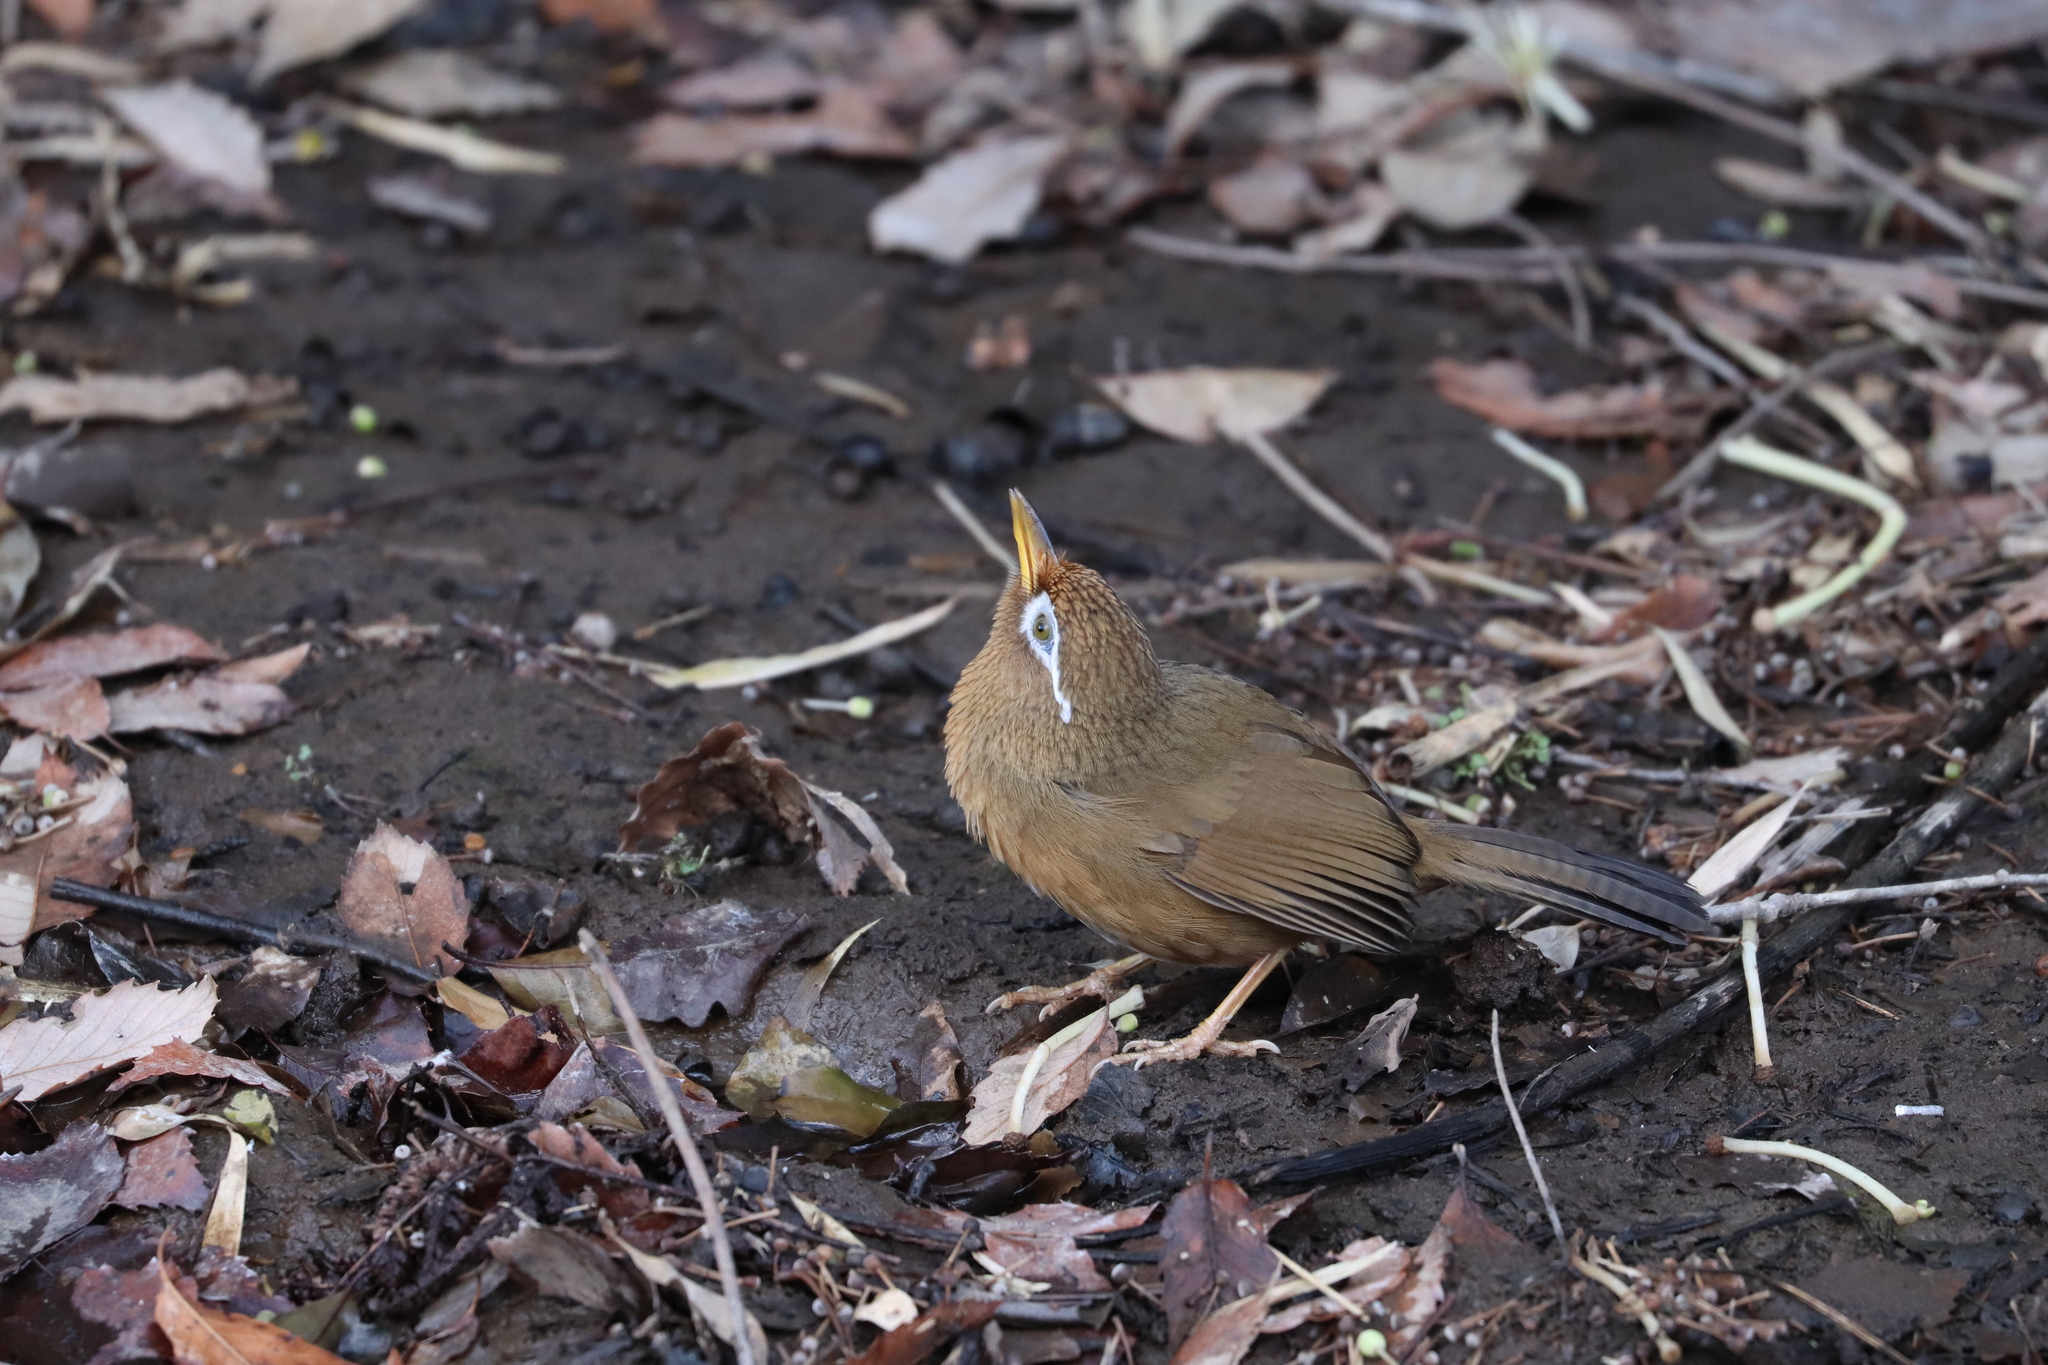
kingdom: Animalia
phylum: Chordata
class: Aves
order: Passeriformes
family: Leiothrichidae
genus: Garrulax
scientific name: Garrulax canorus
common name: Chinese hwamei
